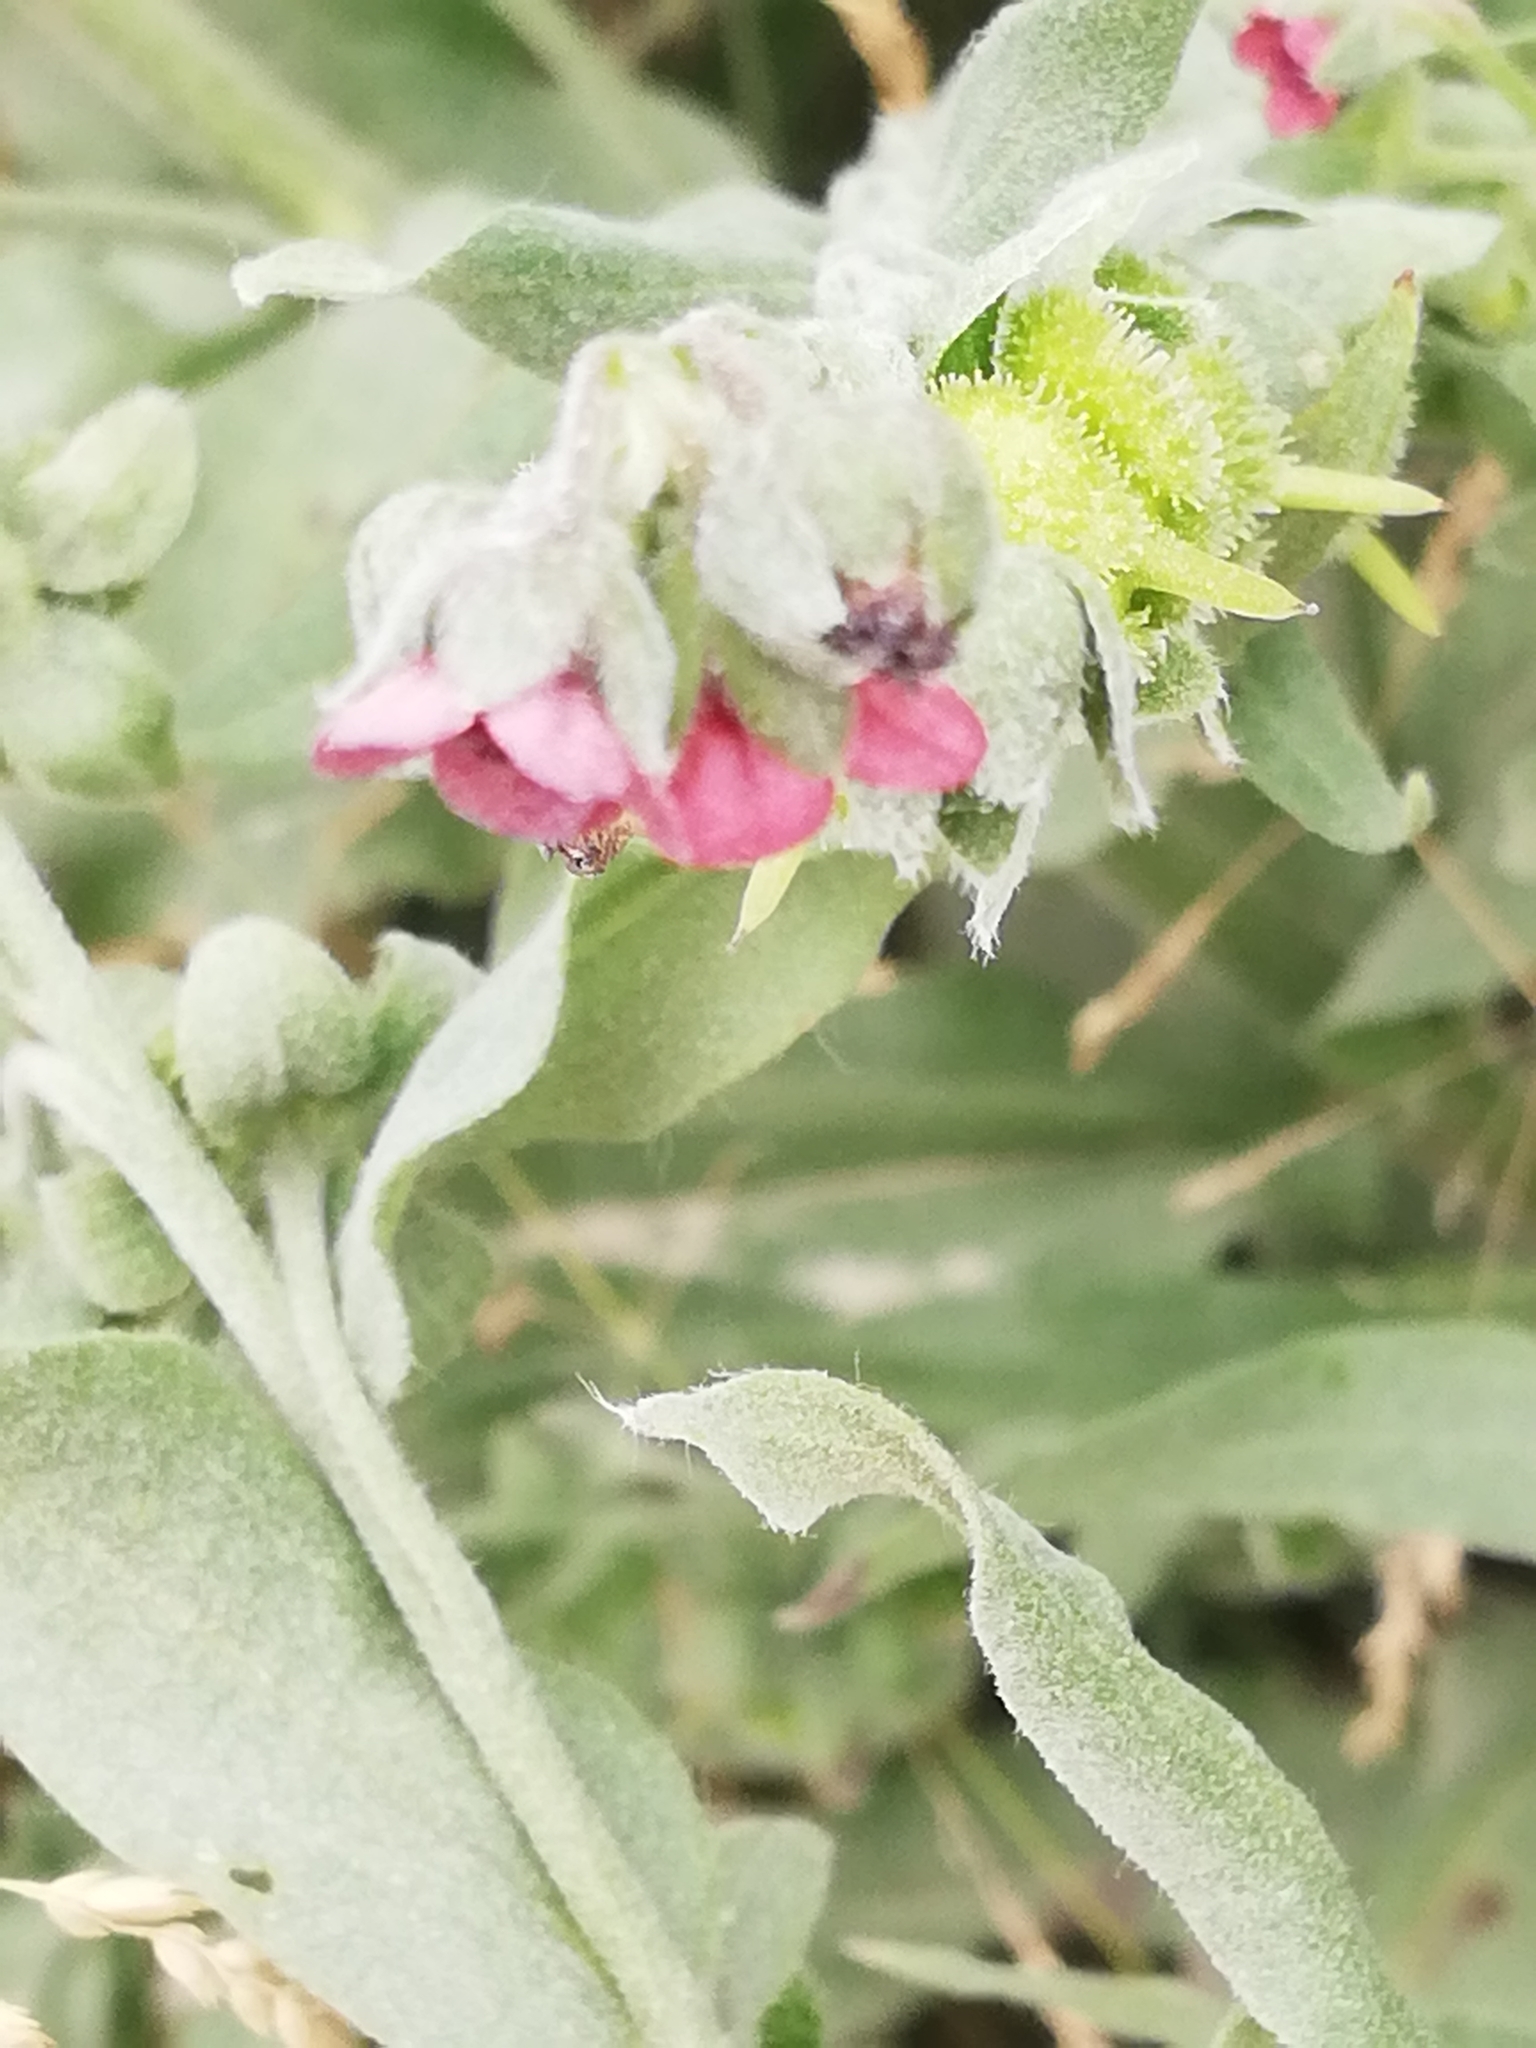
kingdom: Plantae
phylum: Tracheophyta
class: Magnoliopsida
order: Boraginales
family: Boraginaceae
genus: Cynoglossum
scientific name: Cynoglossum officinale
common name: Hound's-tongue
